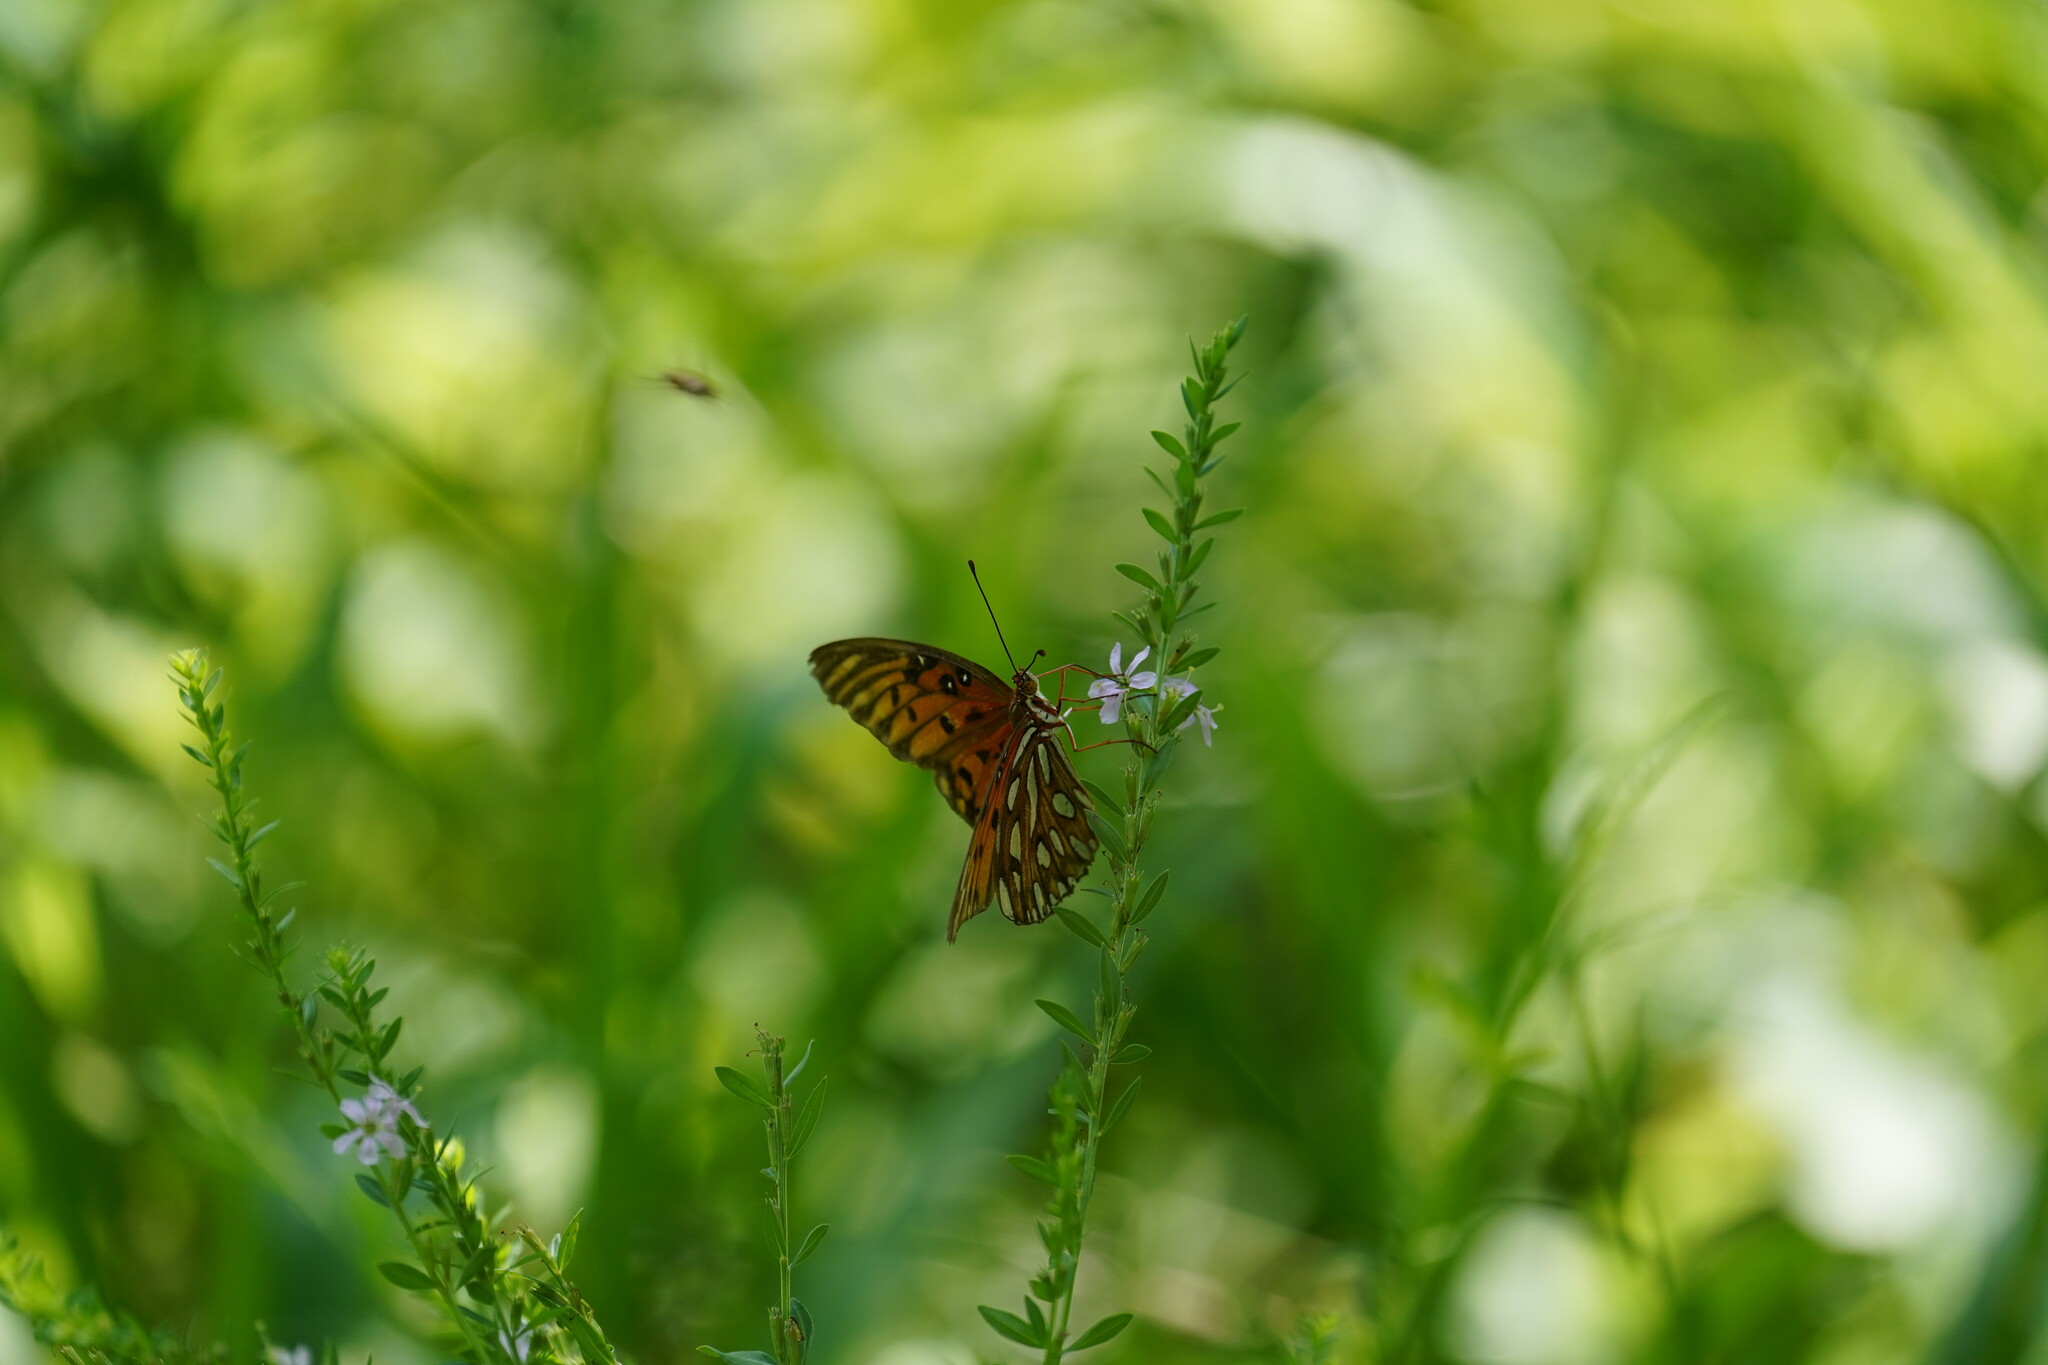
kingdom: Animalia
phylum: Arthropoda
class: Insecta
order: Lepidoptera
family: Nymphalidae
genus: Dione
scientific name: Dione vanillae
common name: Gulf fritillary
